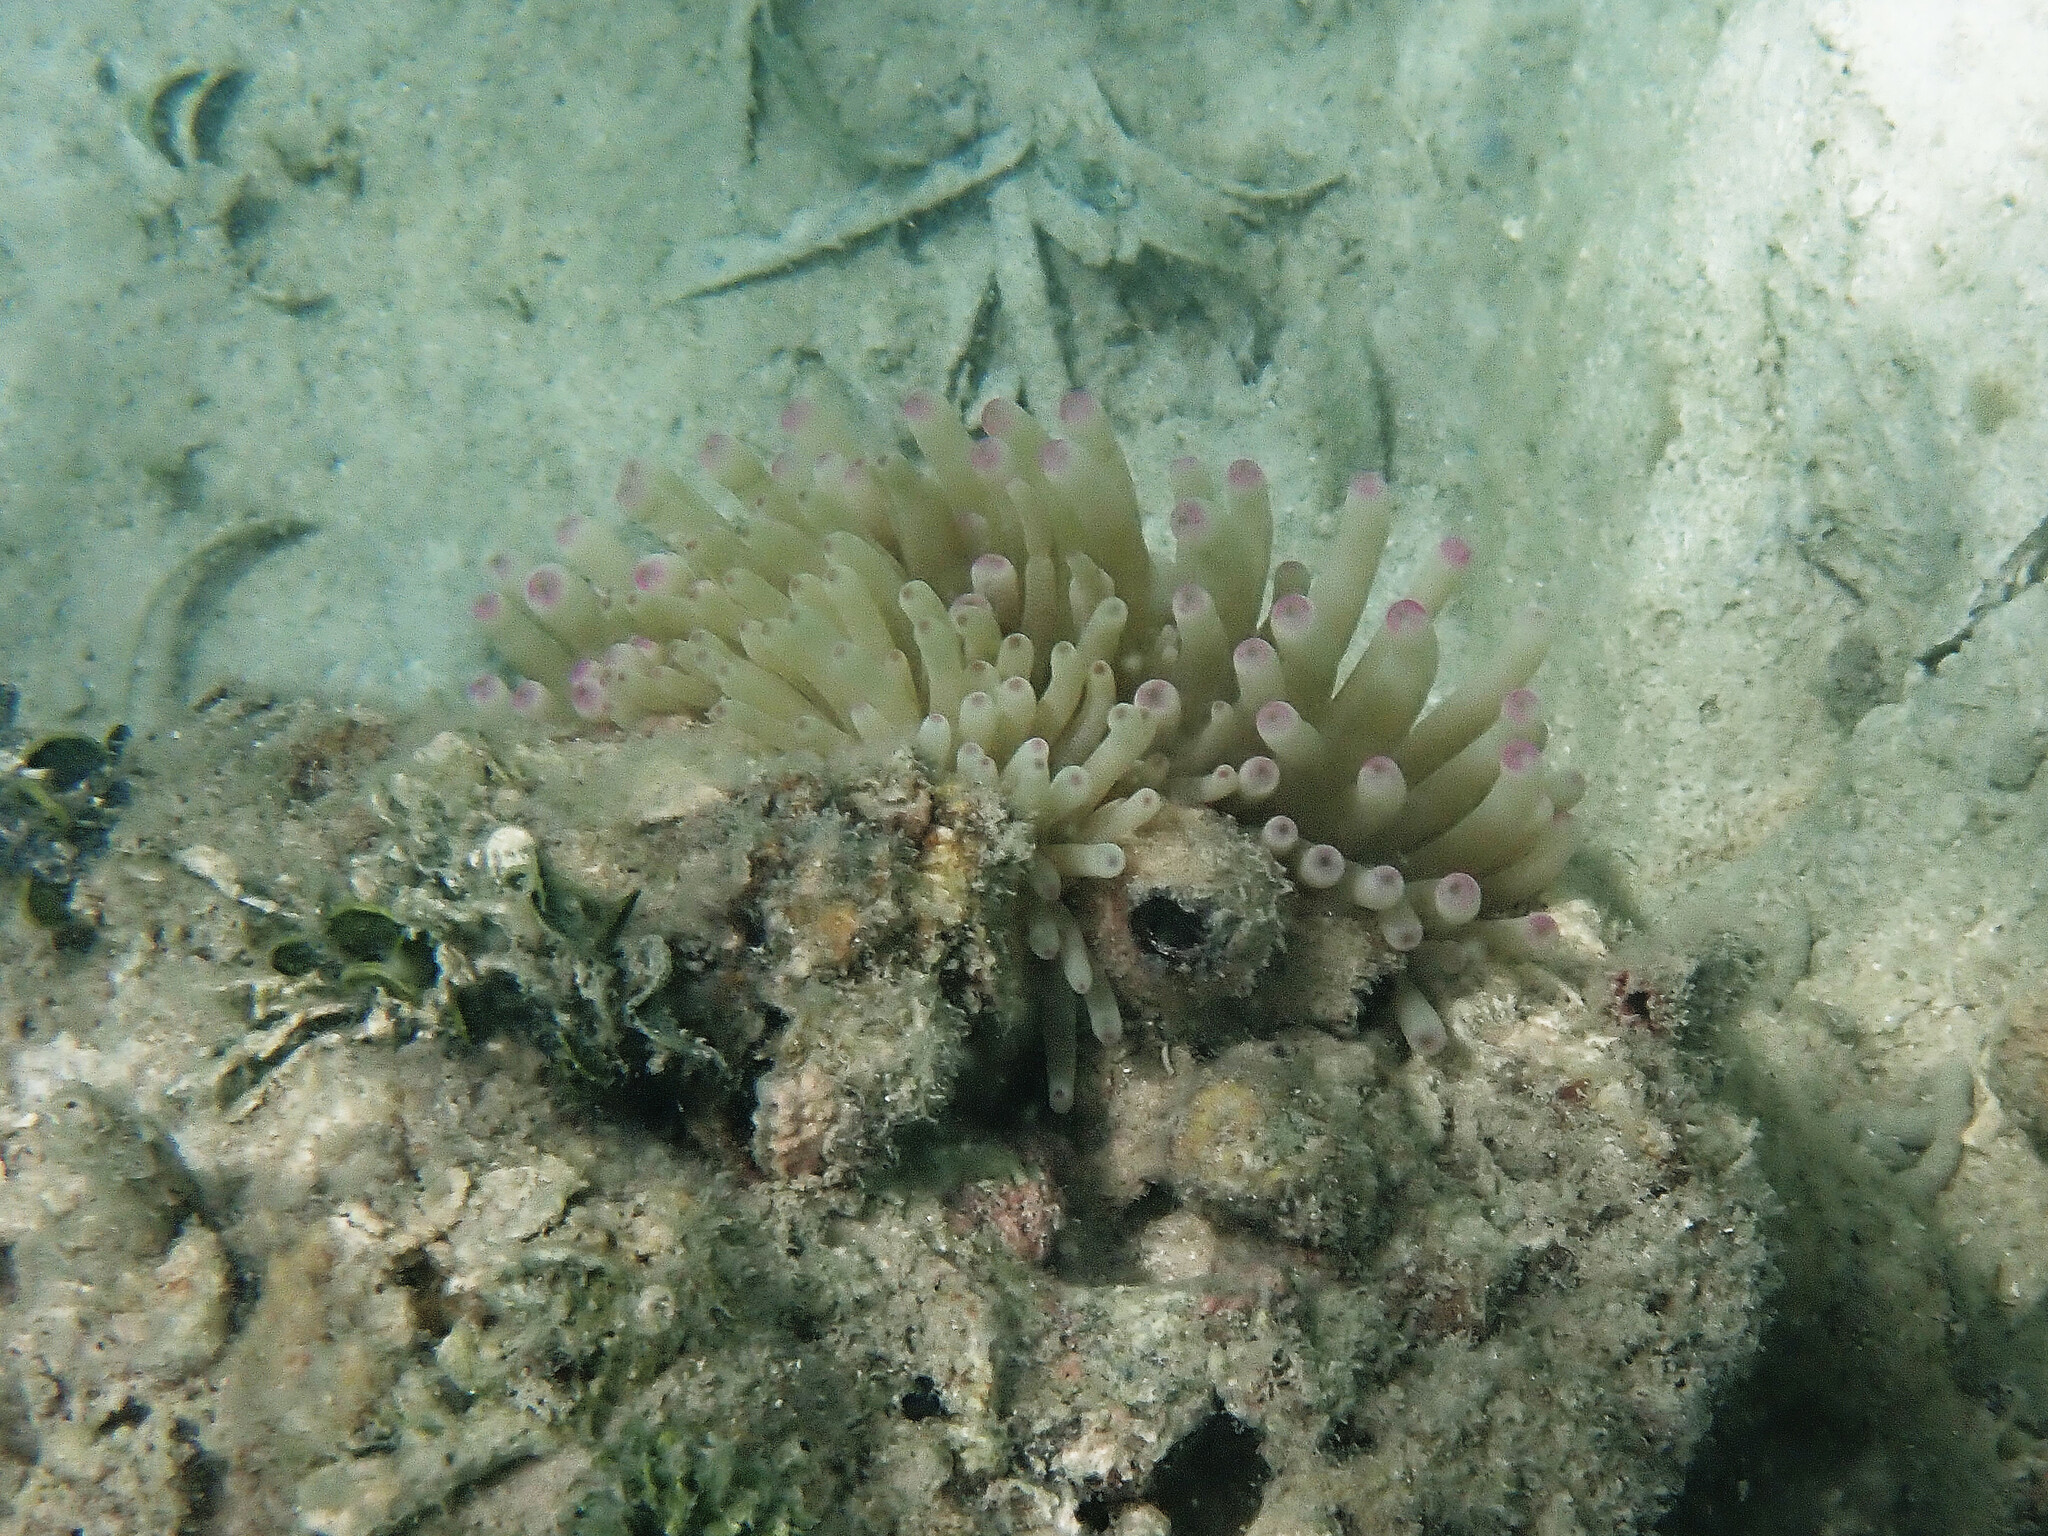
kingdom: Animalia
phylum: Cnidaria
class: Anthozoa
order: Actiniaria
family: Actiniidae
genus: Condylactis
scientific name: Condylactis gigantea
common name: Giant caribbean anemone
